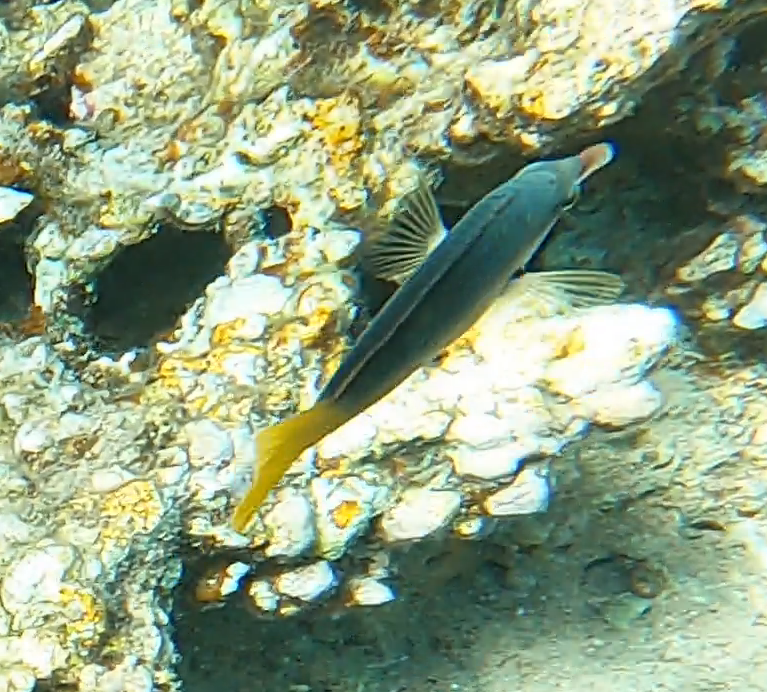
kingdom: Animalia
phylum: Chordata
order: Perciformes
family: Labridae
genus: Gomphosus
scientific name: Gomphosus klunzingeri
